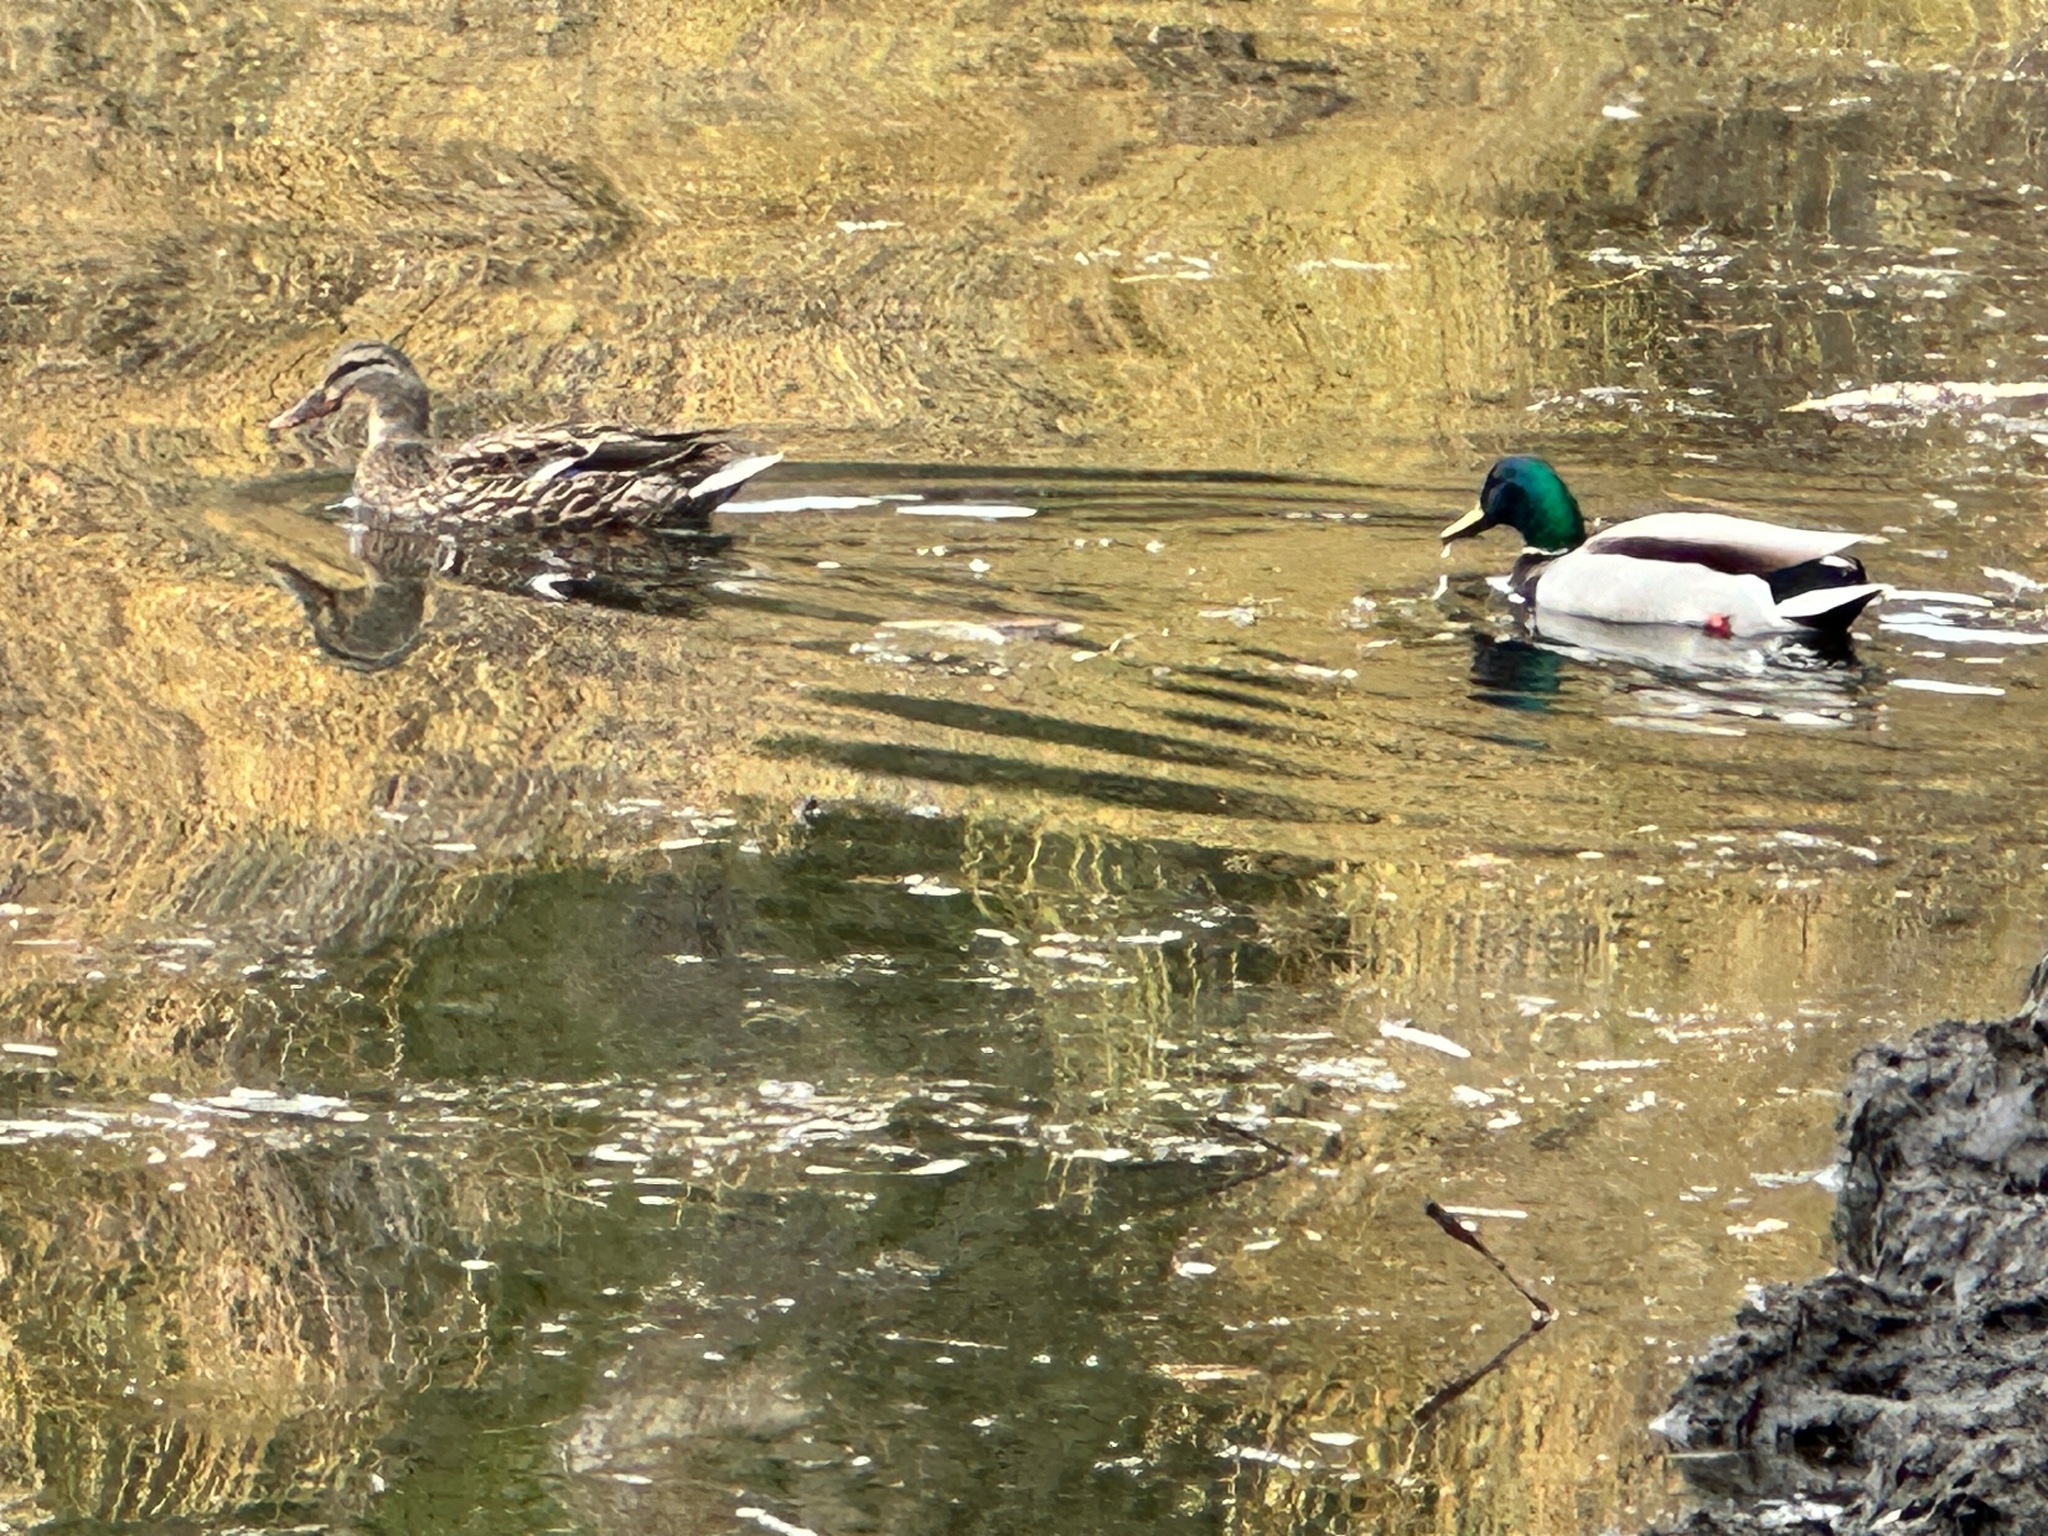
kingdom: Animalia
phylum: Chordata
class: Aves
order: Anseriformes
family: Anatidae
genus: Anas
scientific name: Anas platyrhynchos
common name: Mallard
